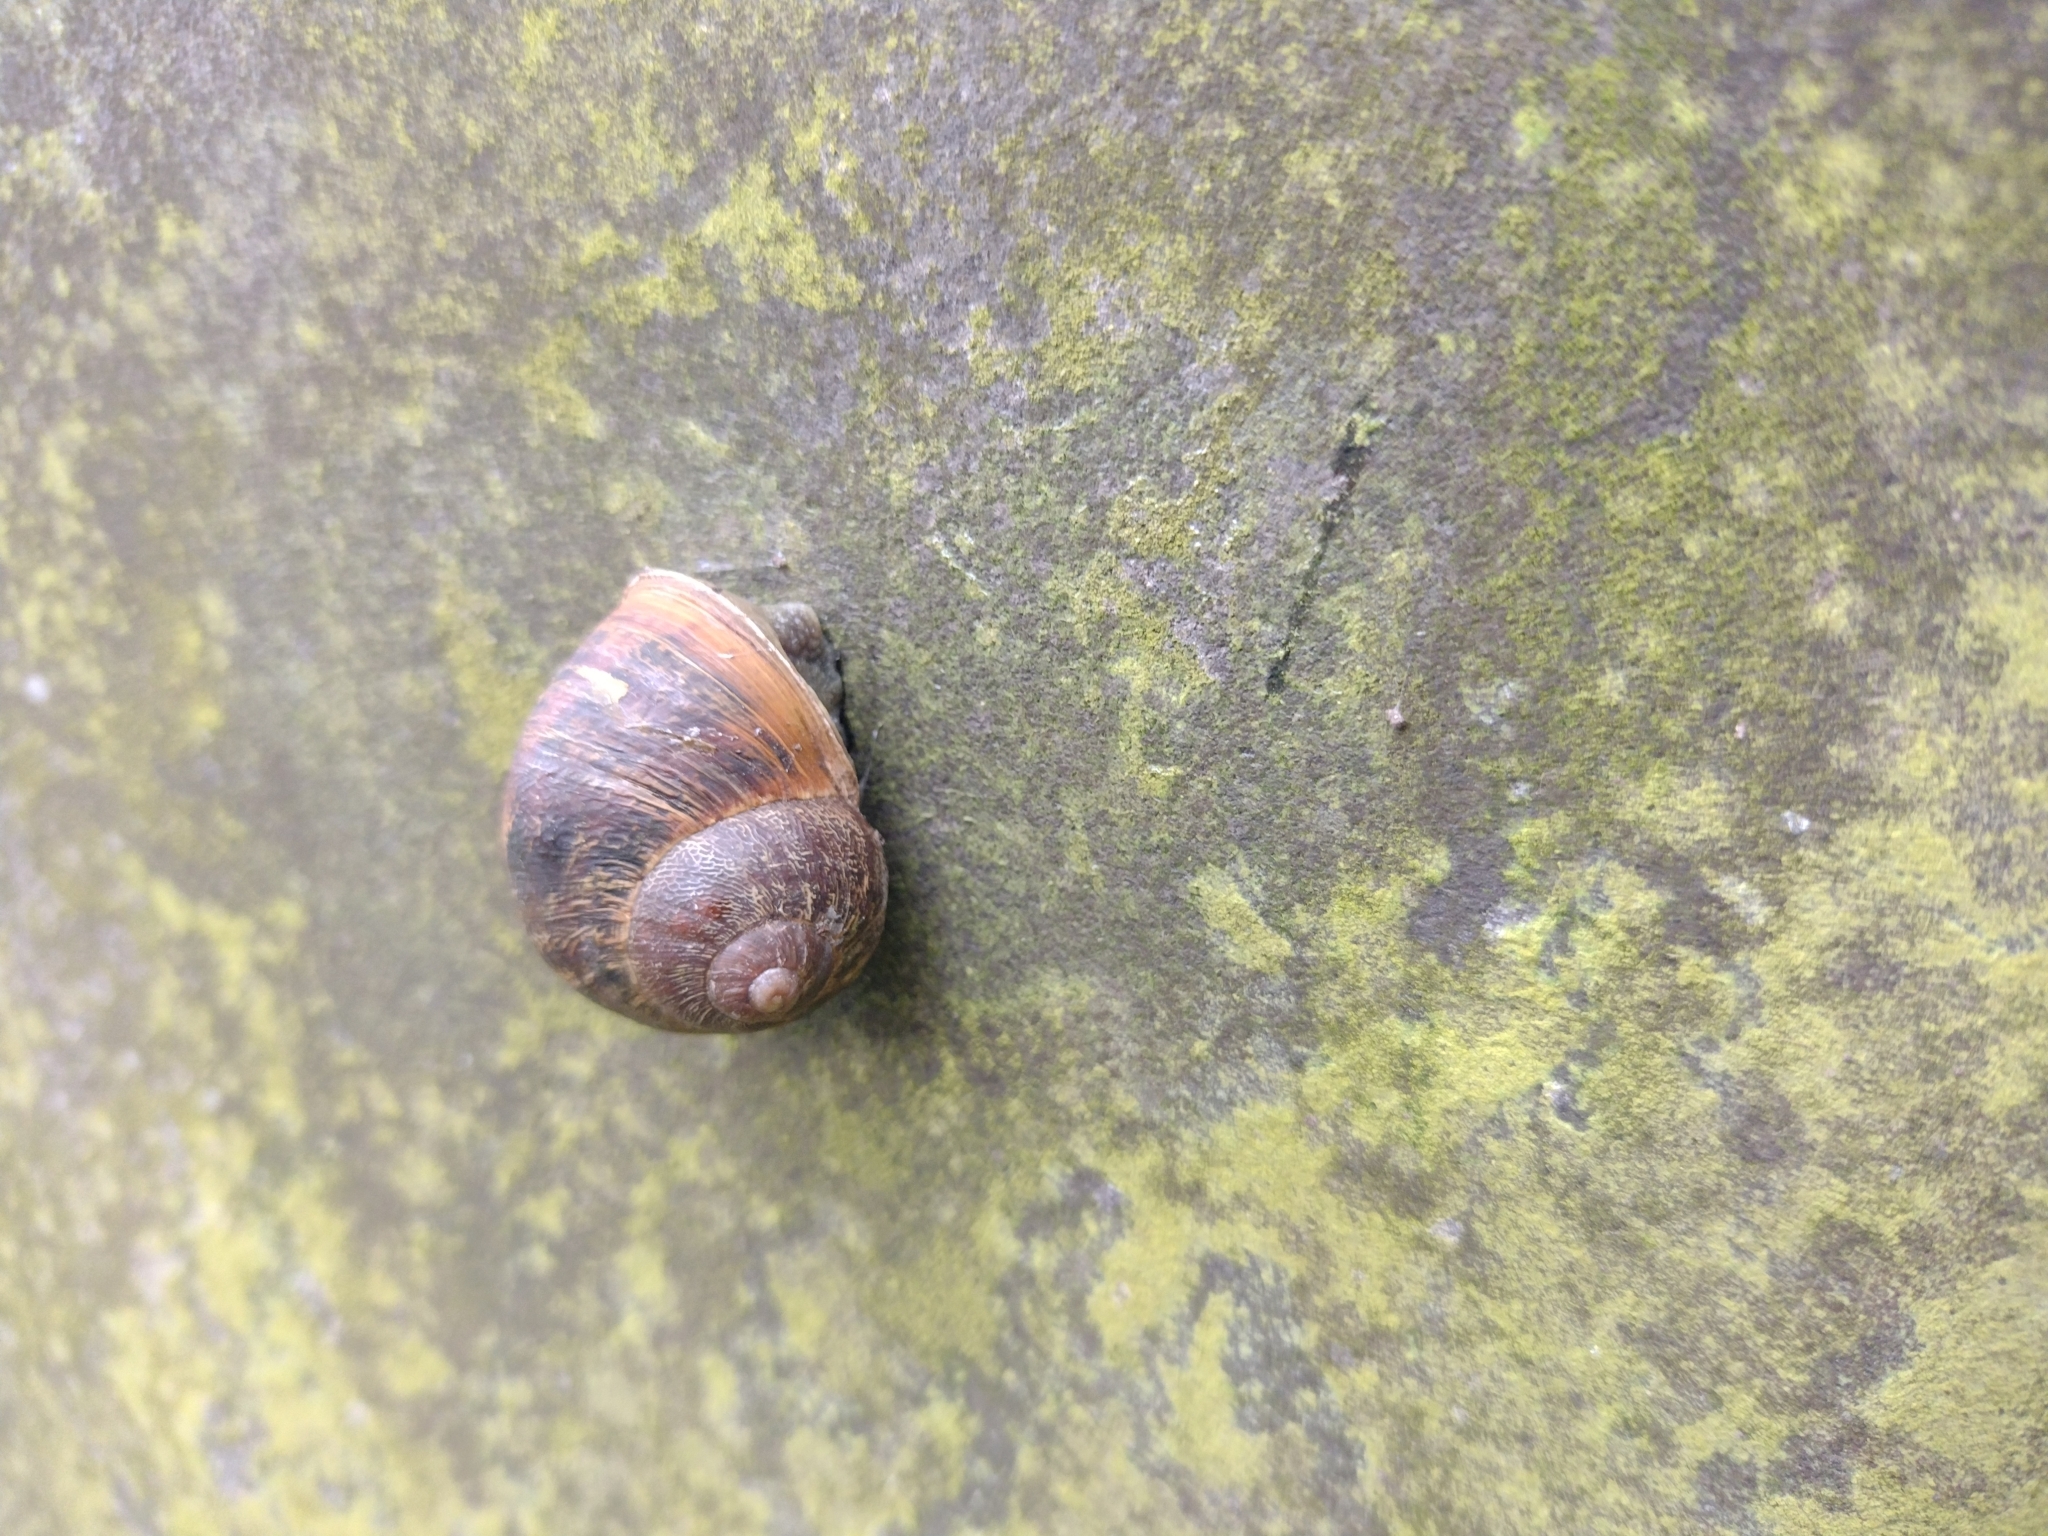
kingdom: Animalia
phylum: Mollusca
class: Gastropoda
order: Stylommatophora
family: Helicidae
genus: Cornu
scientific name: Cornu aspersum
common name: Brown garden snail
